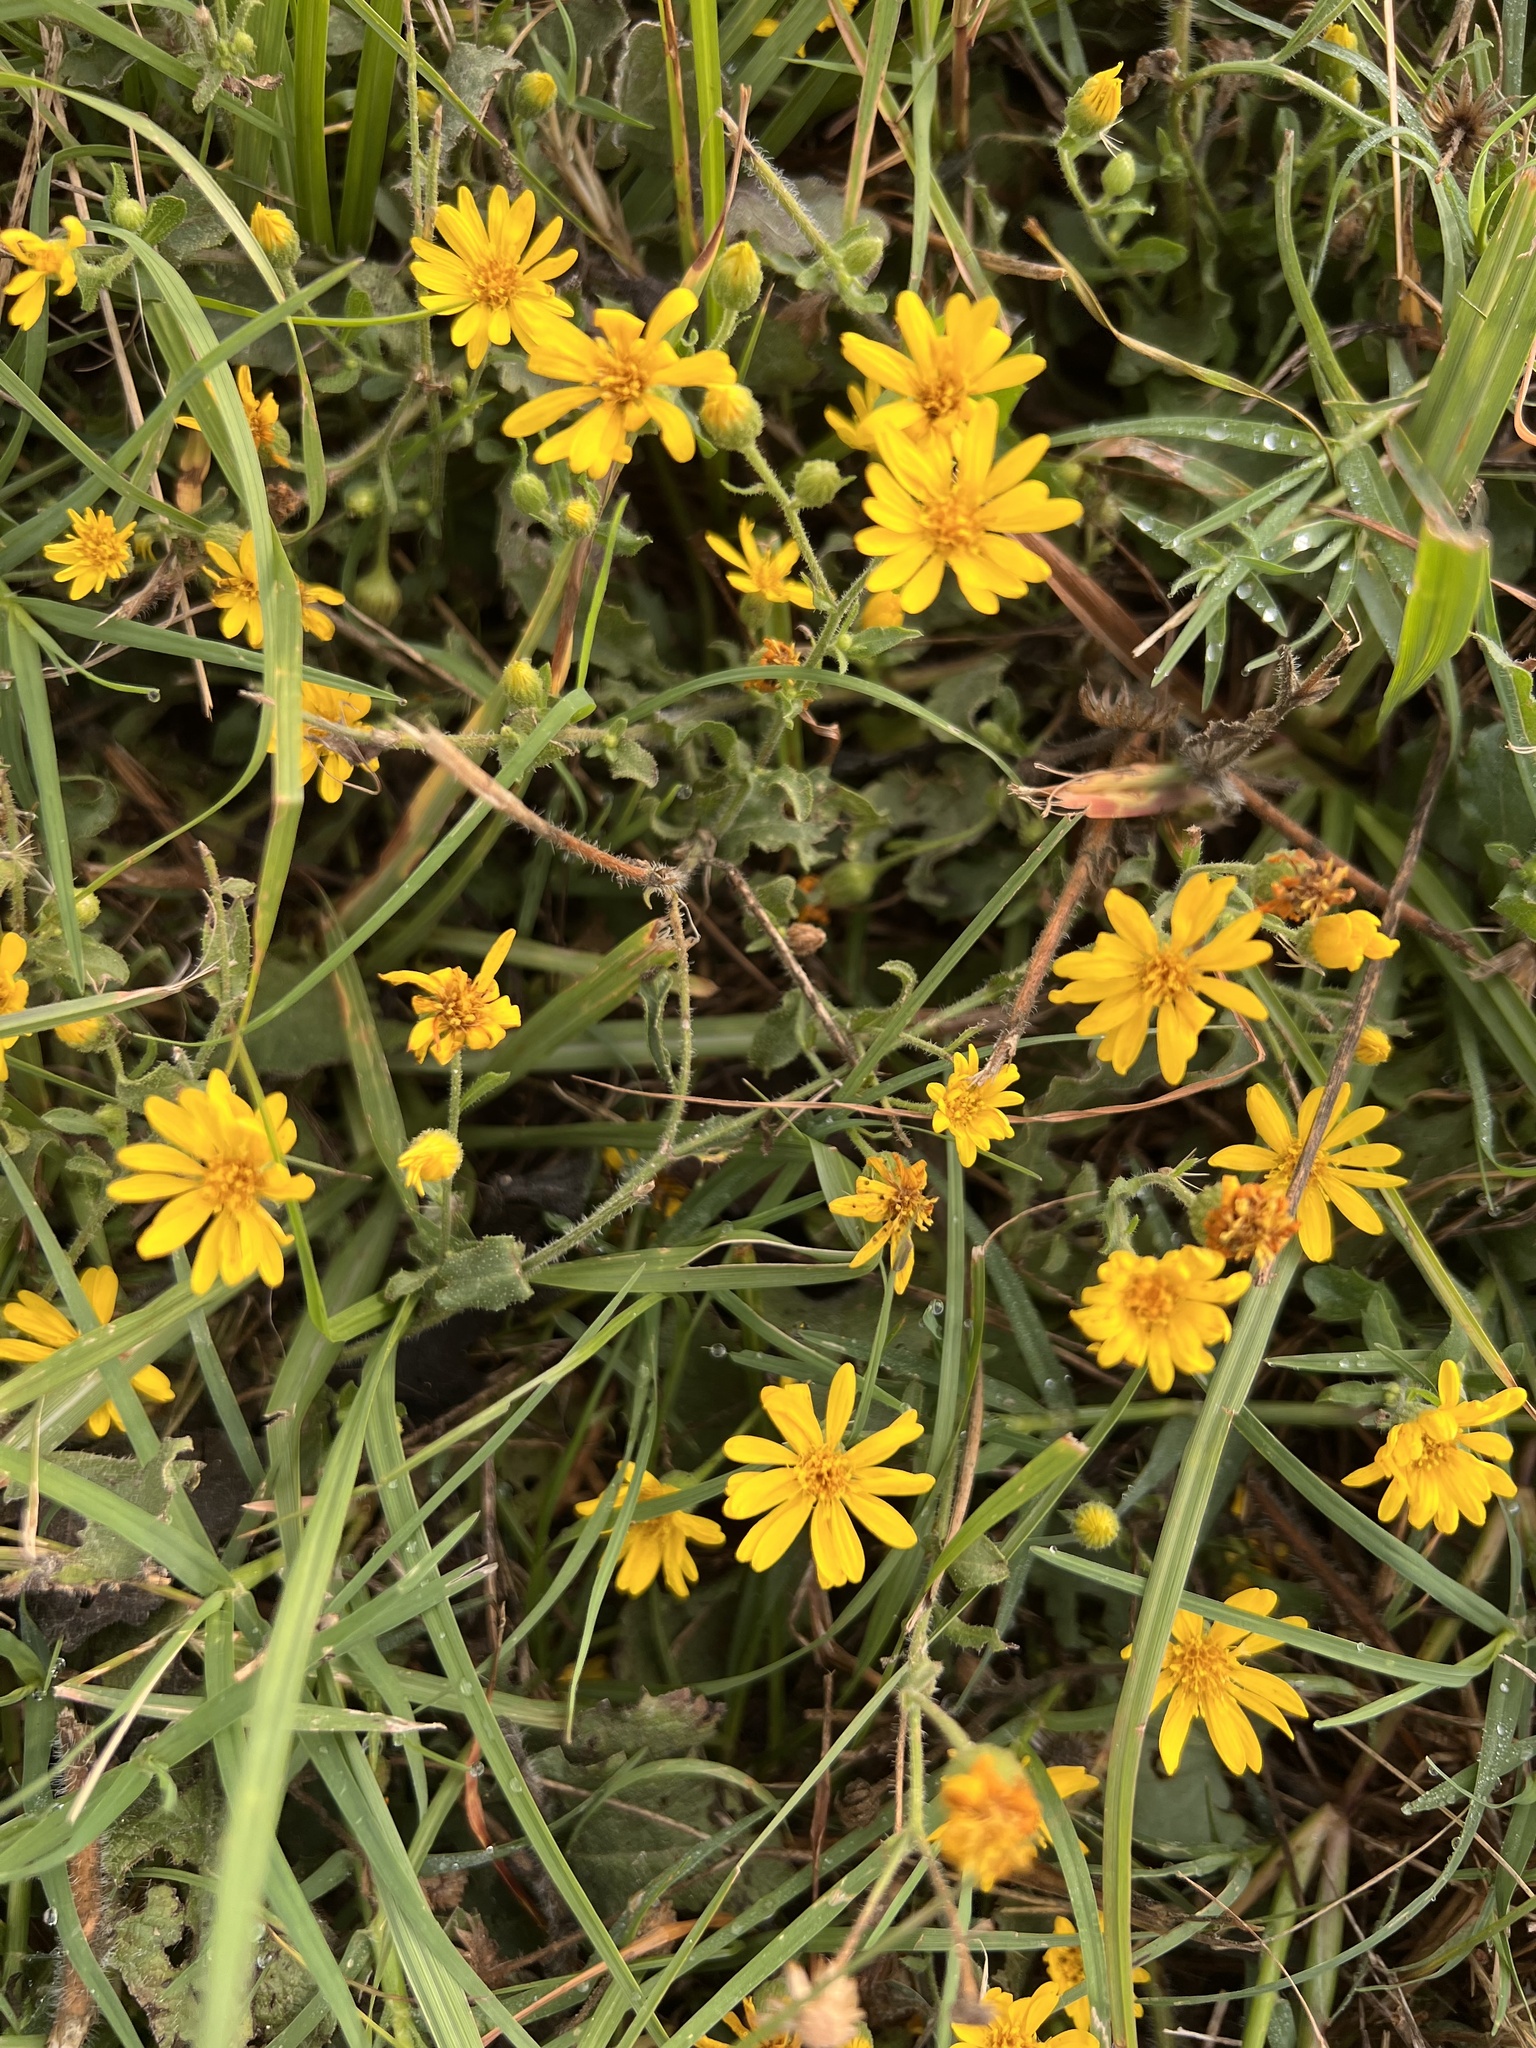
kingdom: Plantae
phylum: Tracheophyta
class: Magnoliopsida
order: Asterales
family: Asteraceae
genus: Heterotheca
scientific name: Heterotheca subaxillaris
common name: Camphorweed
